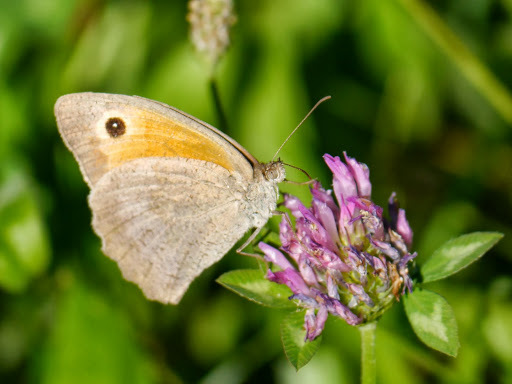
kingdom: Animalia
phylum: Arthropoda
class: Insecta
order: Lepidoptera
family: Nymphalidae
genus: Maniola
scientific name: Maniola jurtina
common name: Meadow brown
